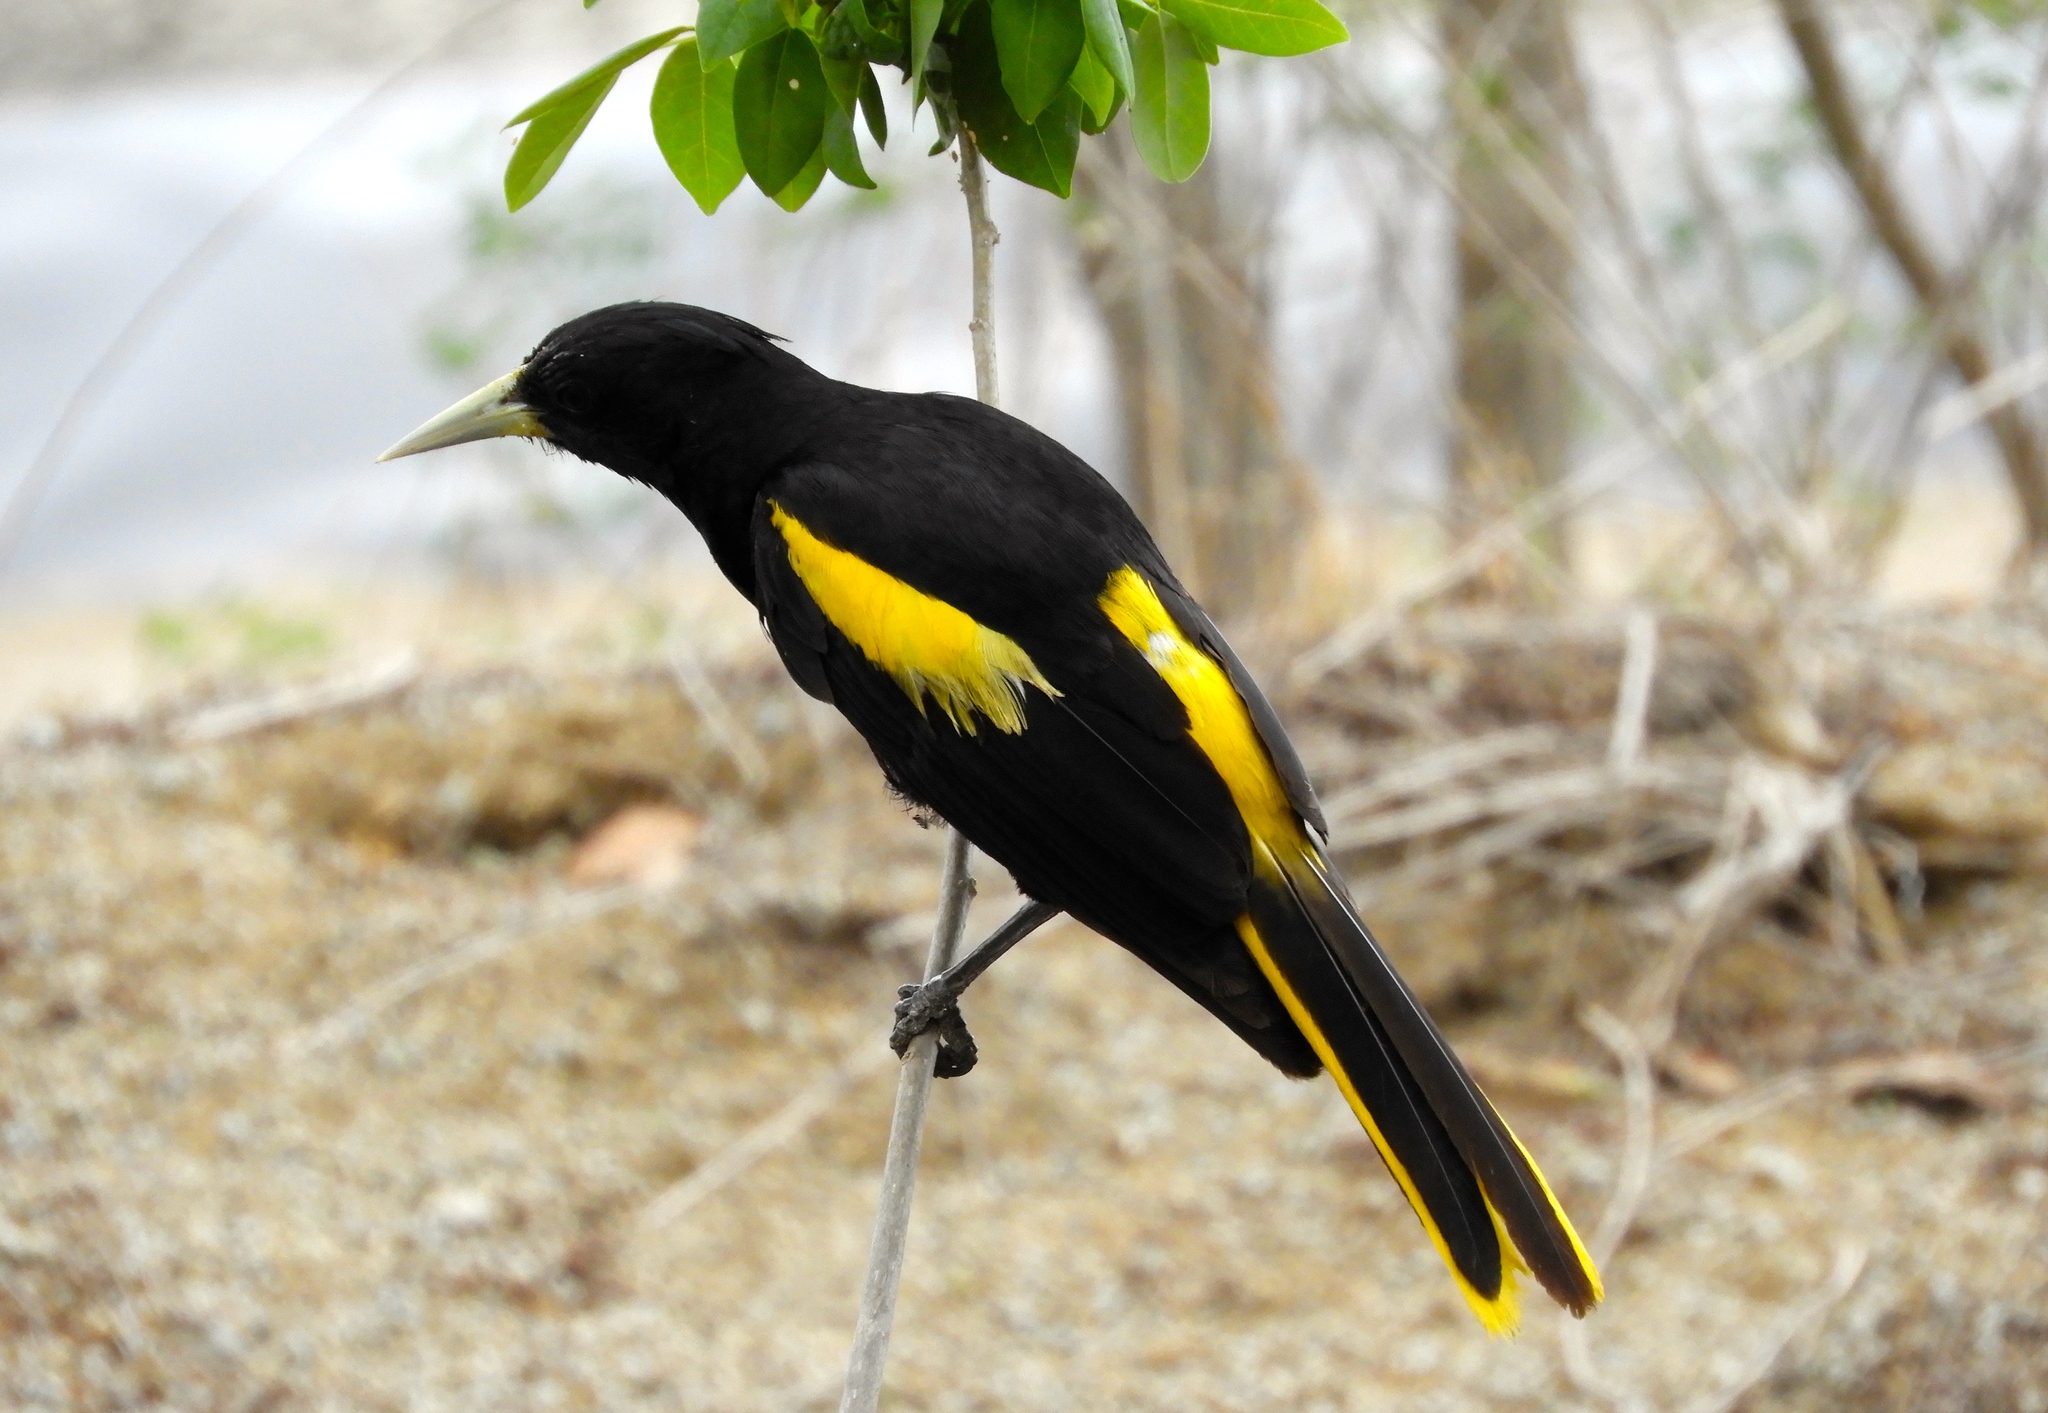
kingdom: Animalia
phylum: Chordata
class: Aves
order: Passeriformes
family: Icteridae
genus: Cacicus
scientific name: Cacicus melanicterus
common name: Yellow-winged cacique
